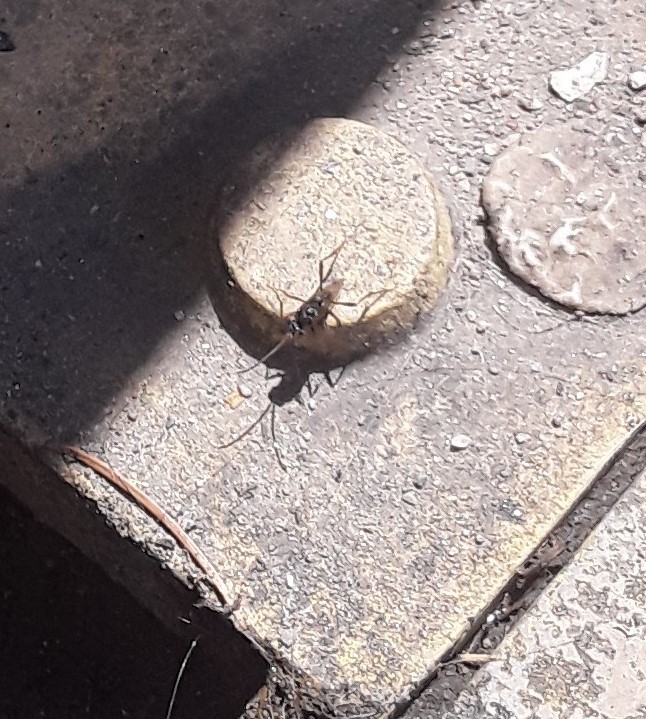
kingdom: Animalia
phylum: Arthropoda
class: Insecta
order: Hymenoptera
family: Evaniidae
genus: Prosevania
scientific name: Prosevania fuscipes
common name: Ensign wasp
